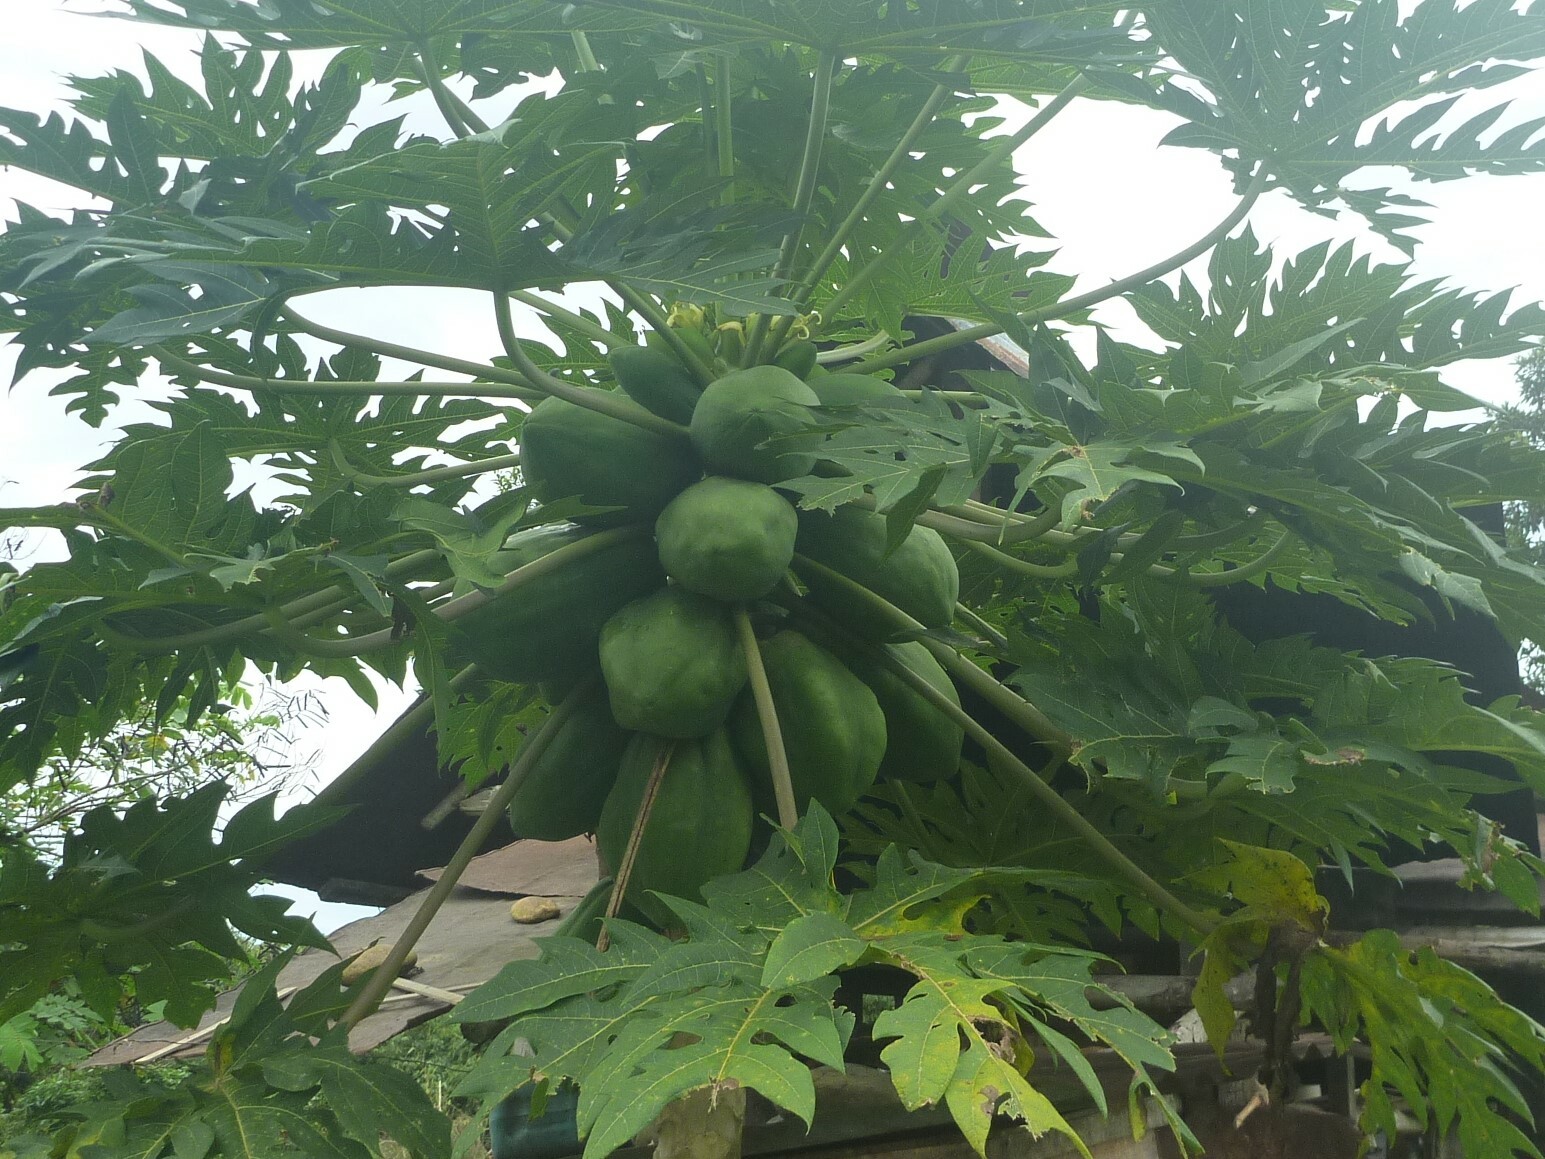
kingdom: Plantae
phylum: Tracheophyta
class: Magnoliopsida
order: Brassicales
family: Caricaceae
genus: Carica
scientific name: Carica papaya
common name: Papaya
